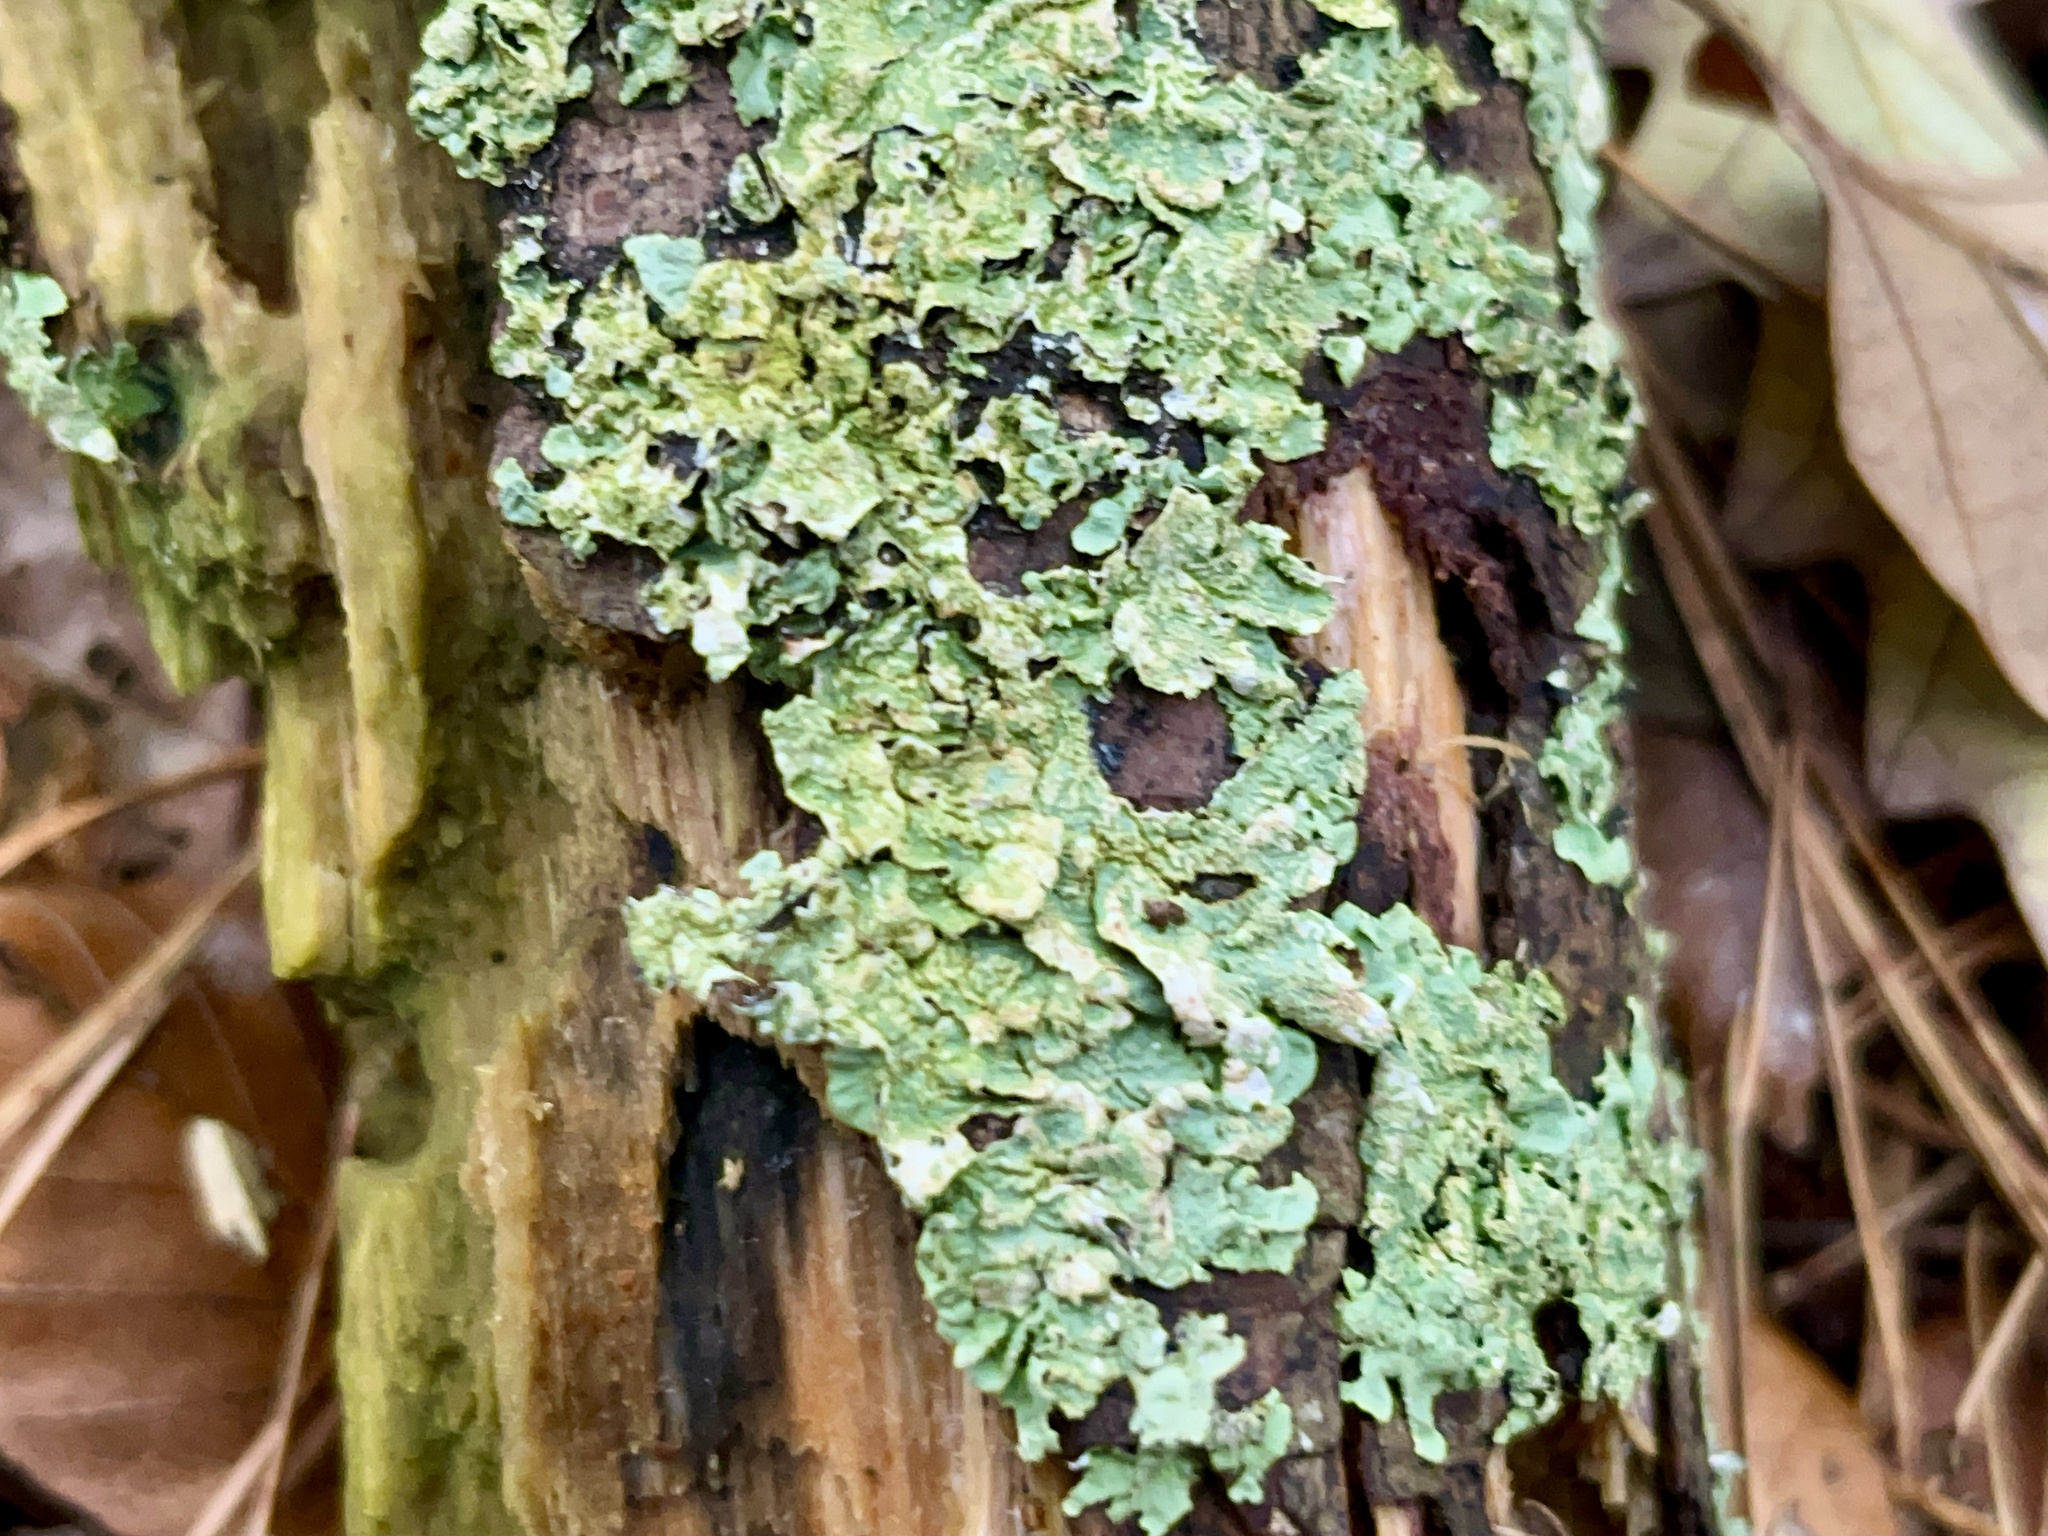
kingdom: Fungi
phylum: Ascomycota
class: Lecanoromycetes
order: Lecanorales
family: Parmeliaceae
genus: Punctelia
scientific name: Punctelia subrudecta
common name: Powdered speckled shield lichen
